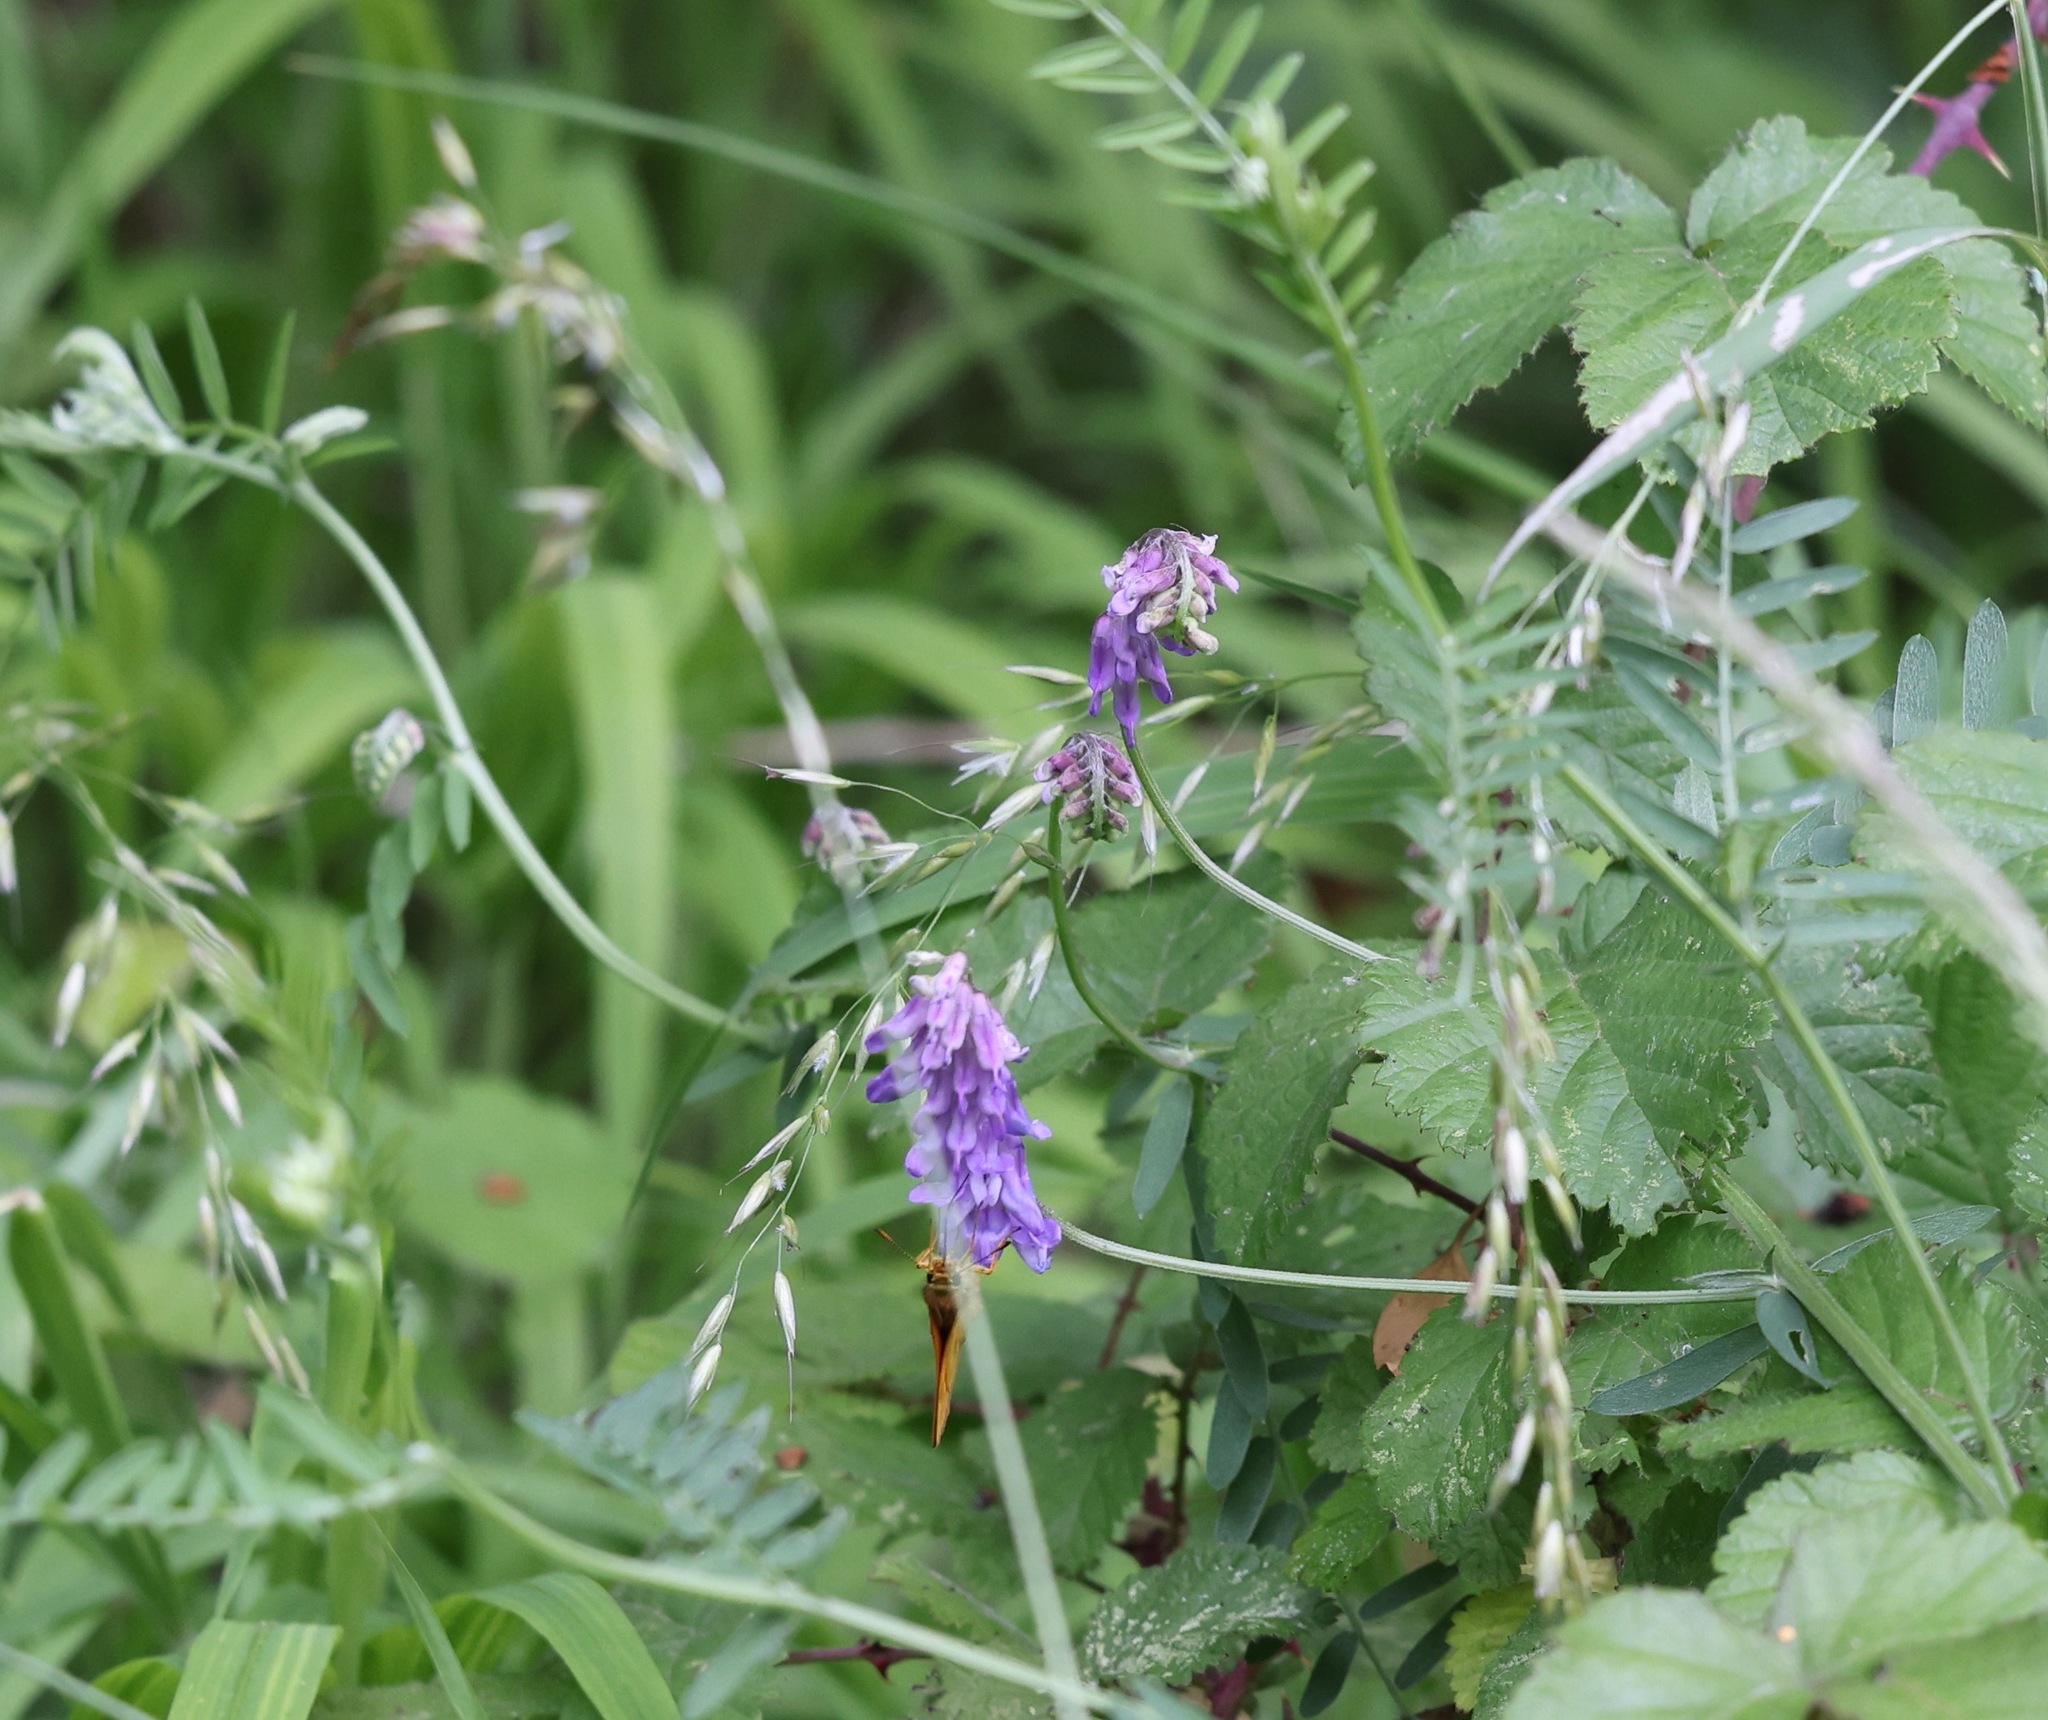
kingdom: Plantae
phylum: Tracheophyta
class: Magnoliopsida
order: Fabales
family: Fabaceae
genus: Vicia
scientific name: Vicia cracca
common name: Bird vetch
